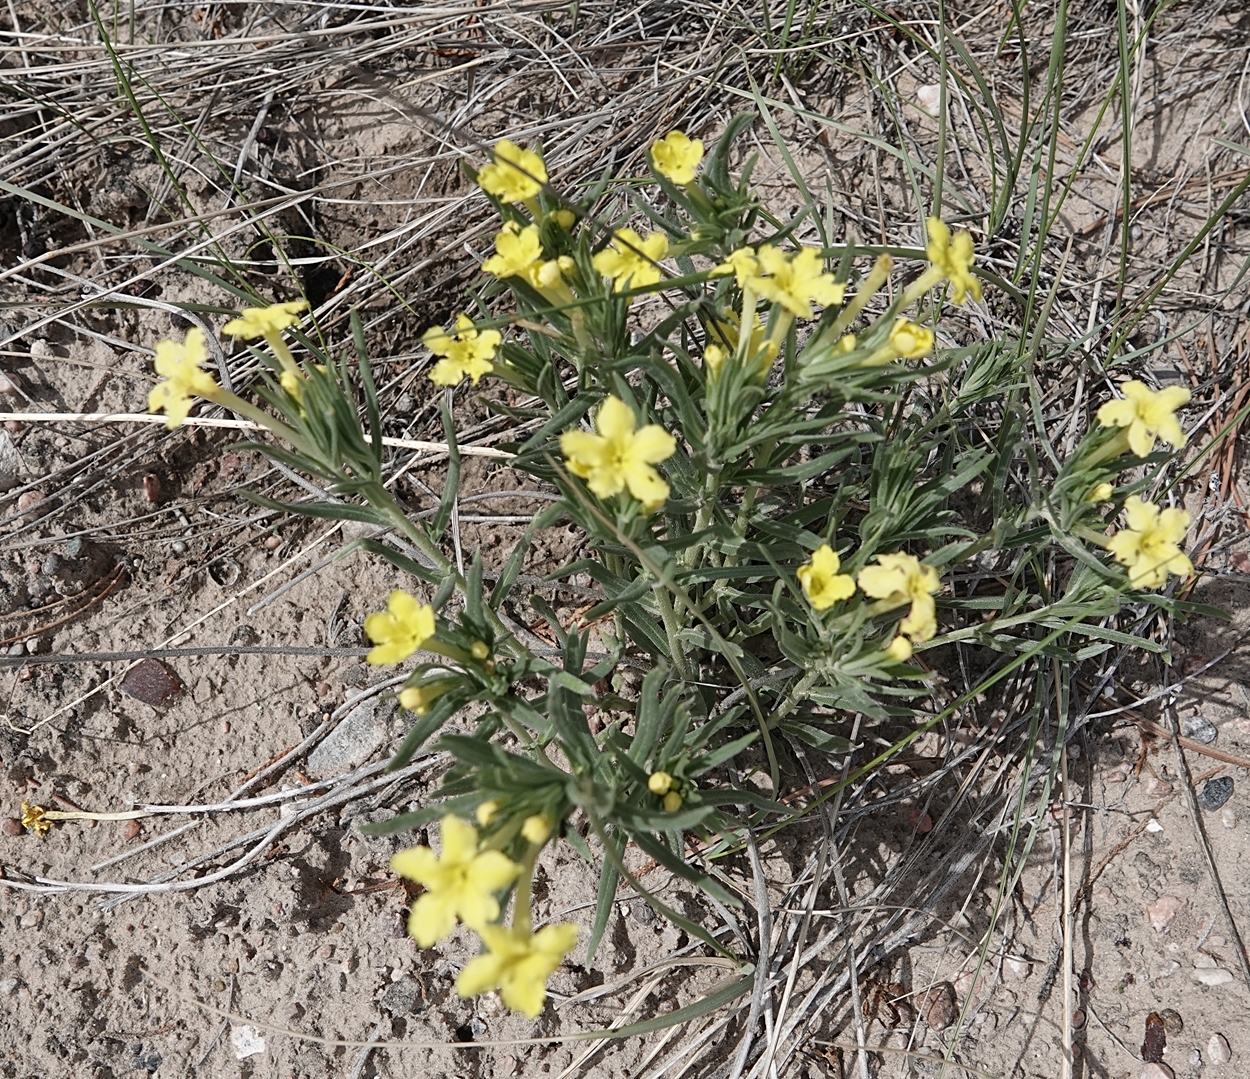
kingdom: Plantae
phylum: Tracheophyta
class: Magnoliopsida
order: Boraginales
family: Boraginaceae
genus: Lithospermum
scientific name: Lithospermum incisum
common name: Fringed gromwell
